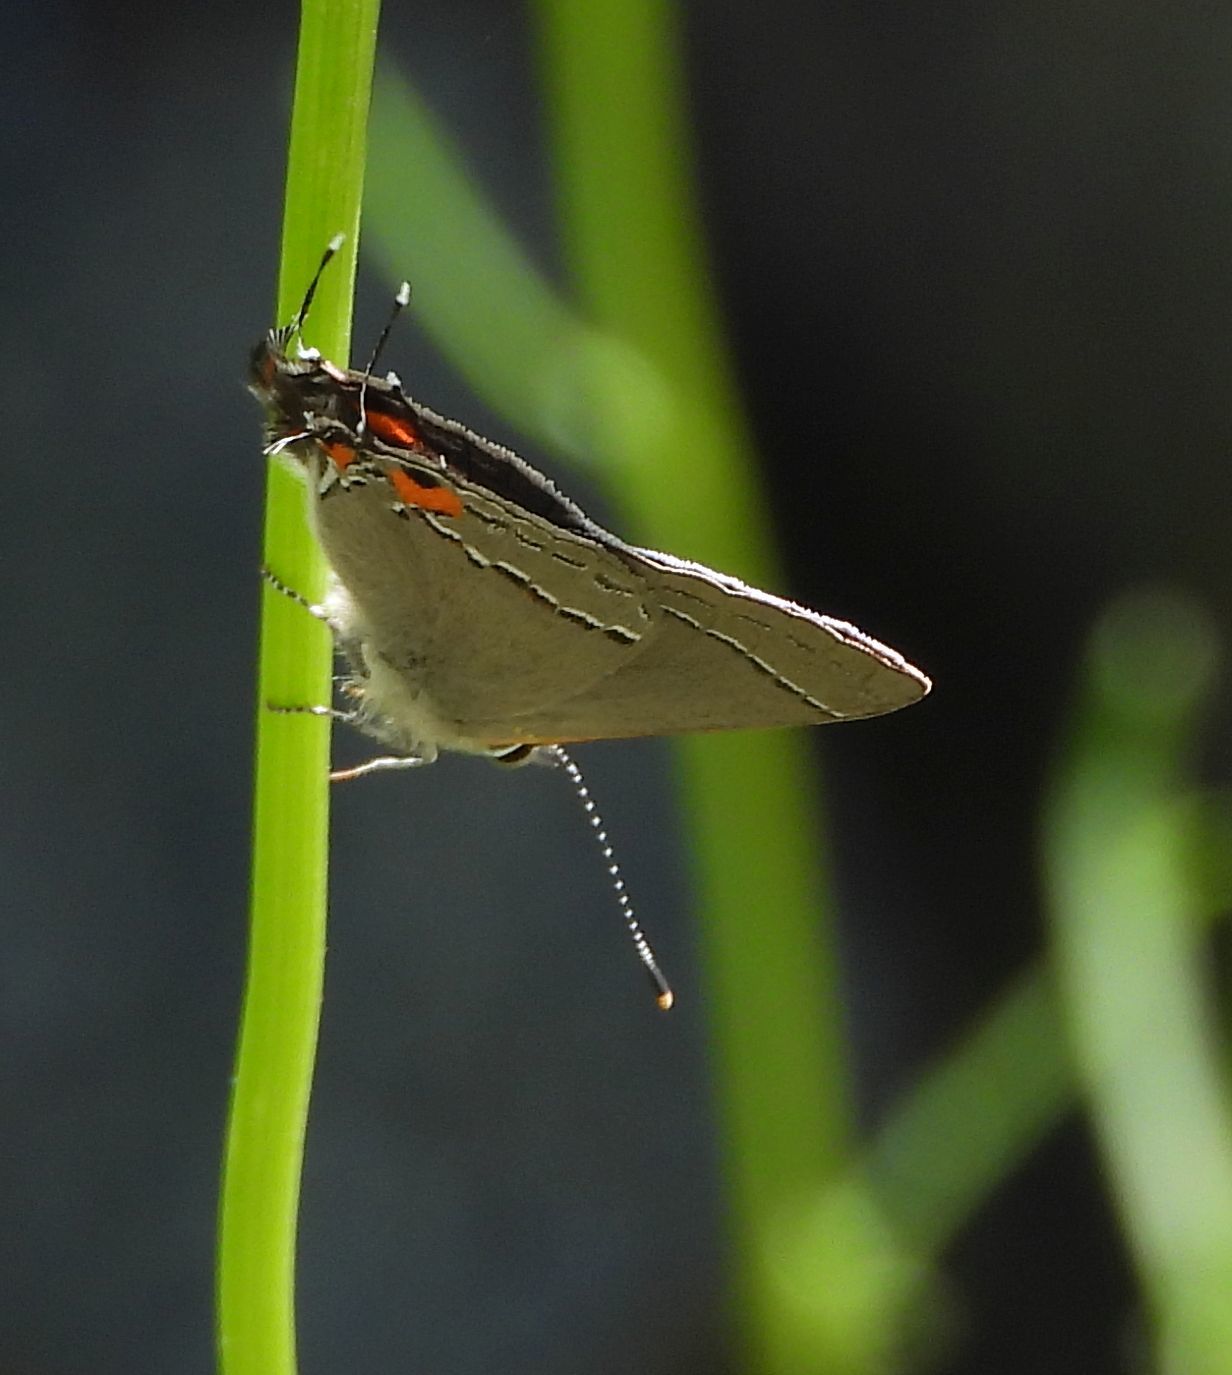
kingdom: Animalia
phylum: Arthropoda
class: Insecta
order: Lepidoptera
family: Lycaenidae
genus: Strymon
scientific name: Strymon melinus
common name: Gray hairstreak
